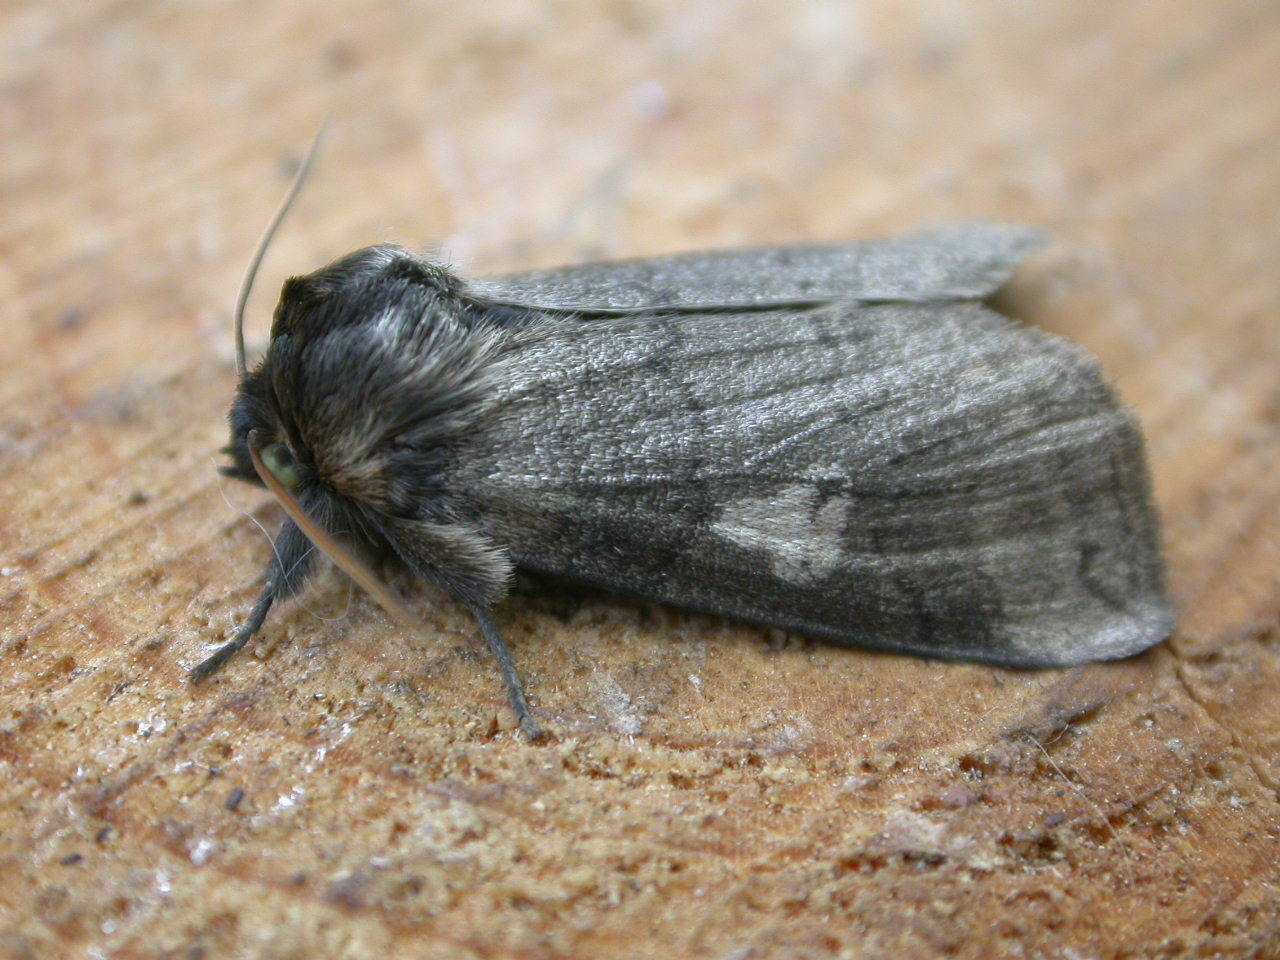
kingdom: Animalia
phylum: Arthropoda
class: Insecta
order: Lepidoptera
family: Drepanidae
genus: Tethea
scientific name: Tethea or
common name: Poplar lutestring
